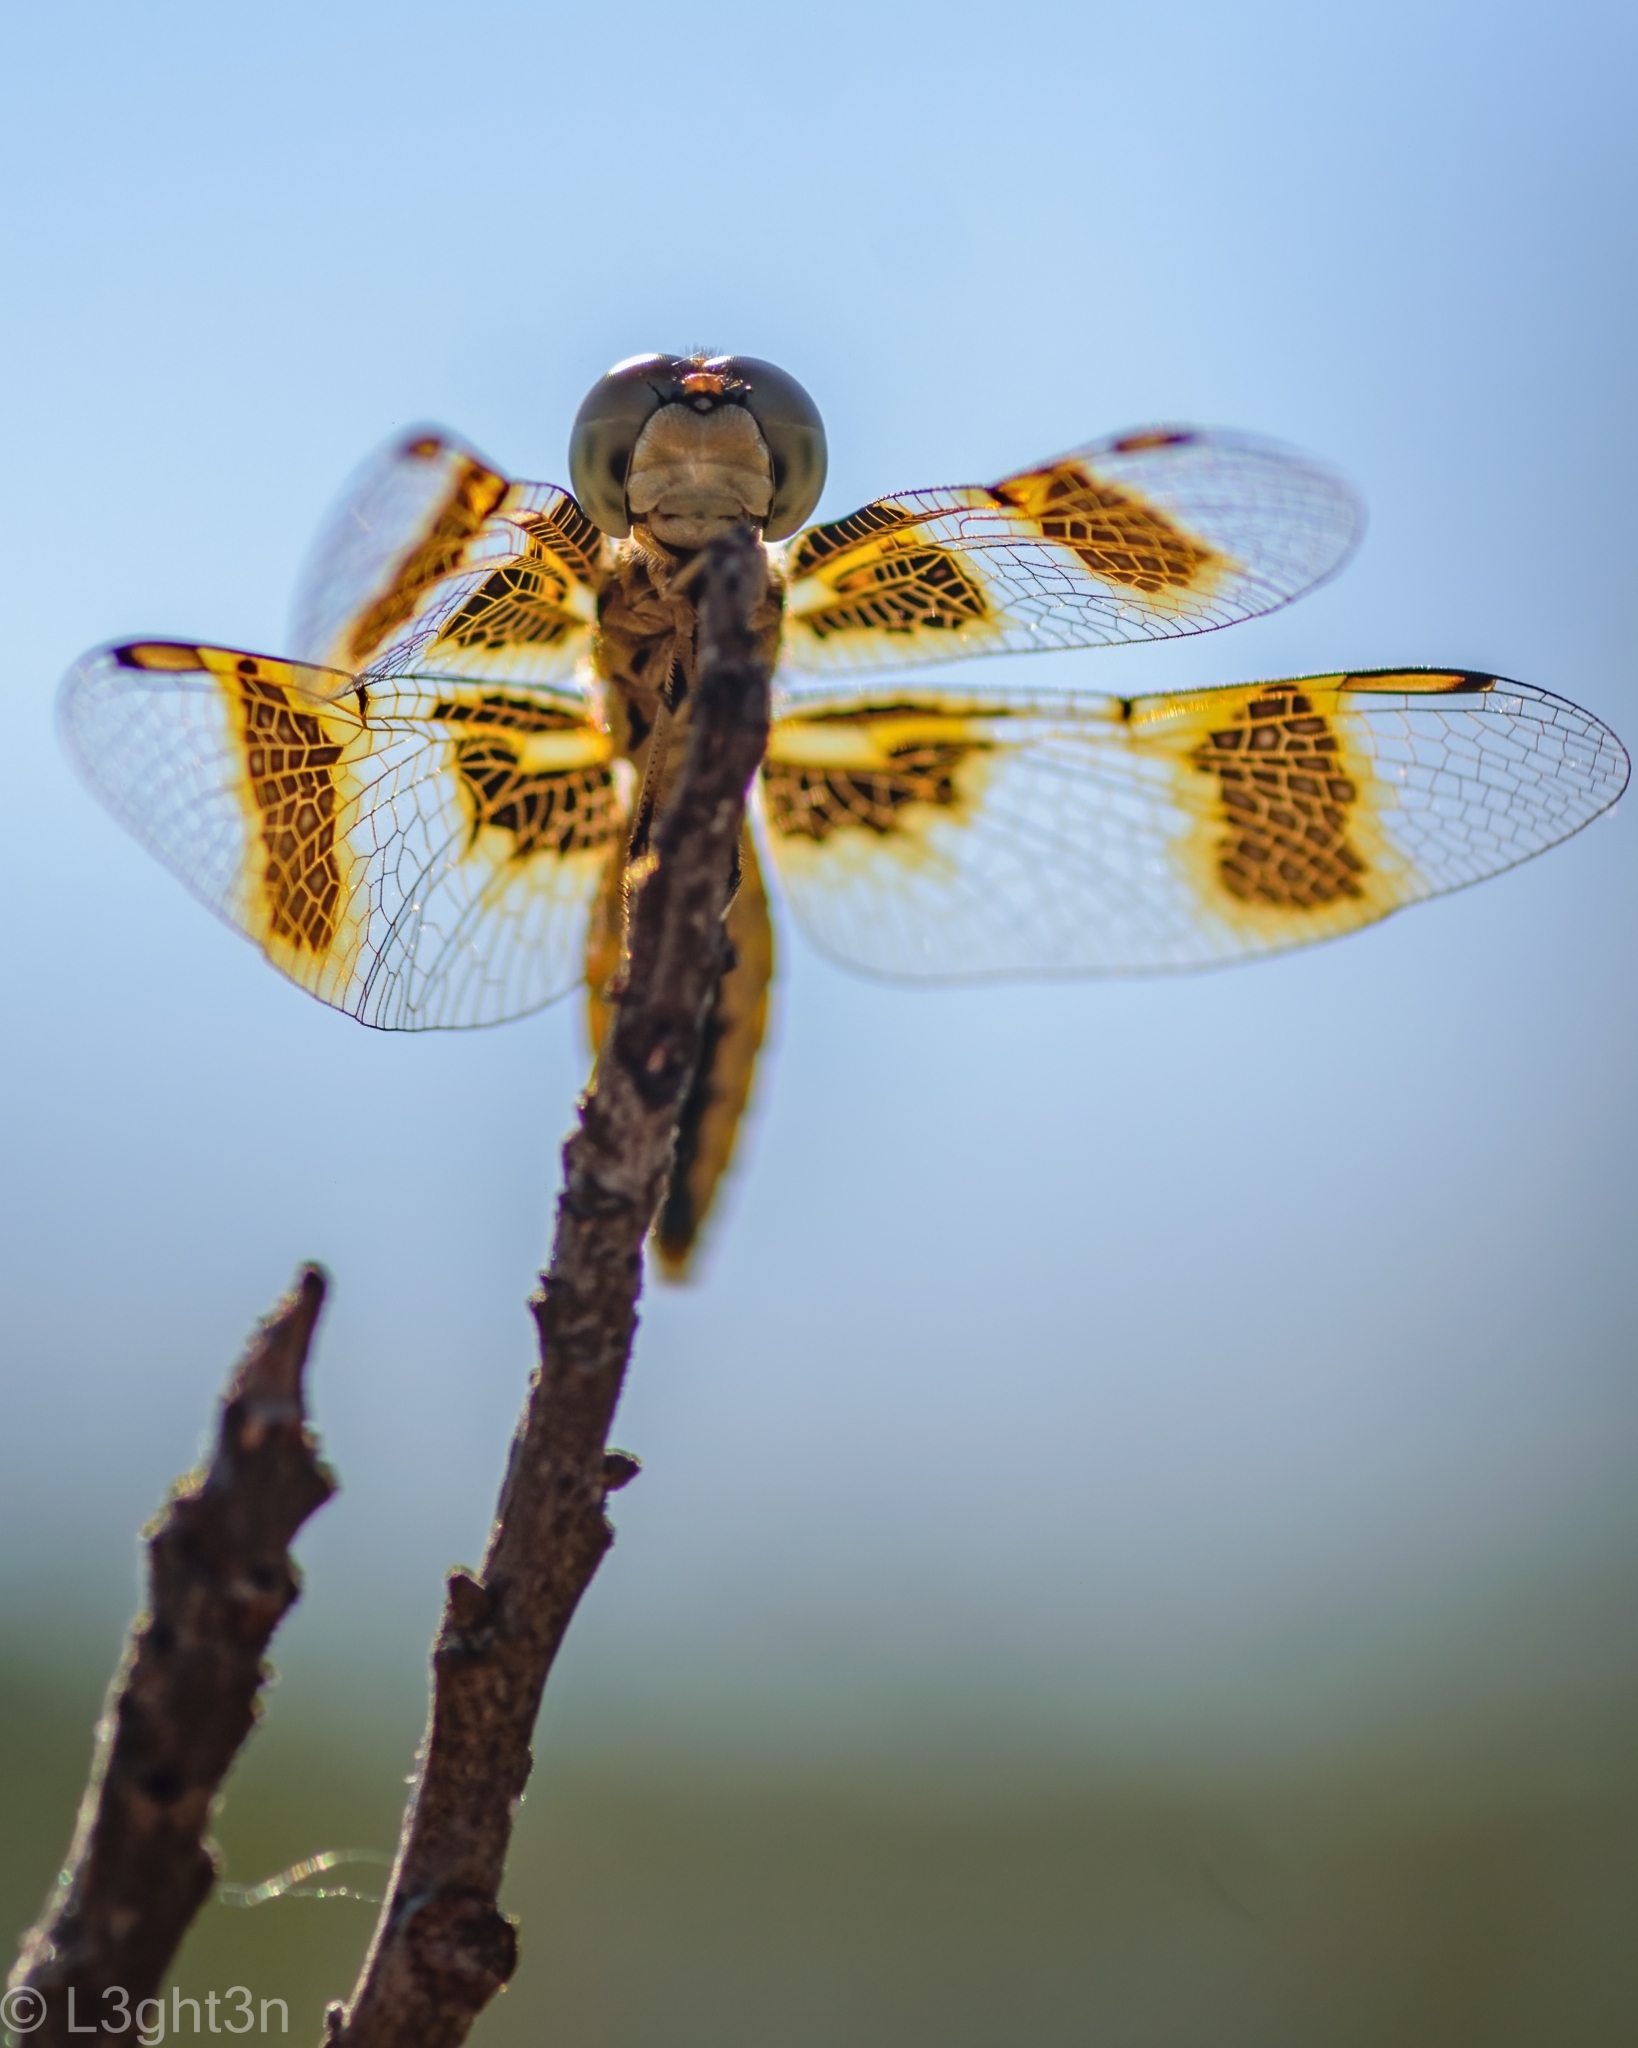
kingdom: Animalia
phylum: Arthropoda
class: Insecta
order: Odonata
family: Libellulidae
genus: Palpopleura
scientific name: Palpopleura jucunda
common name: Yellow-veined widow
